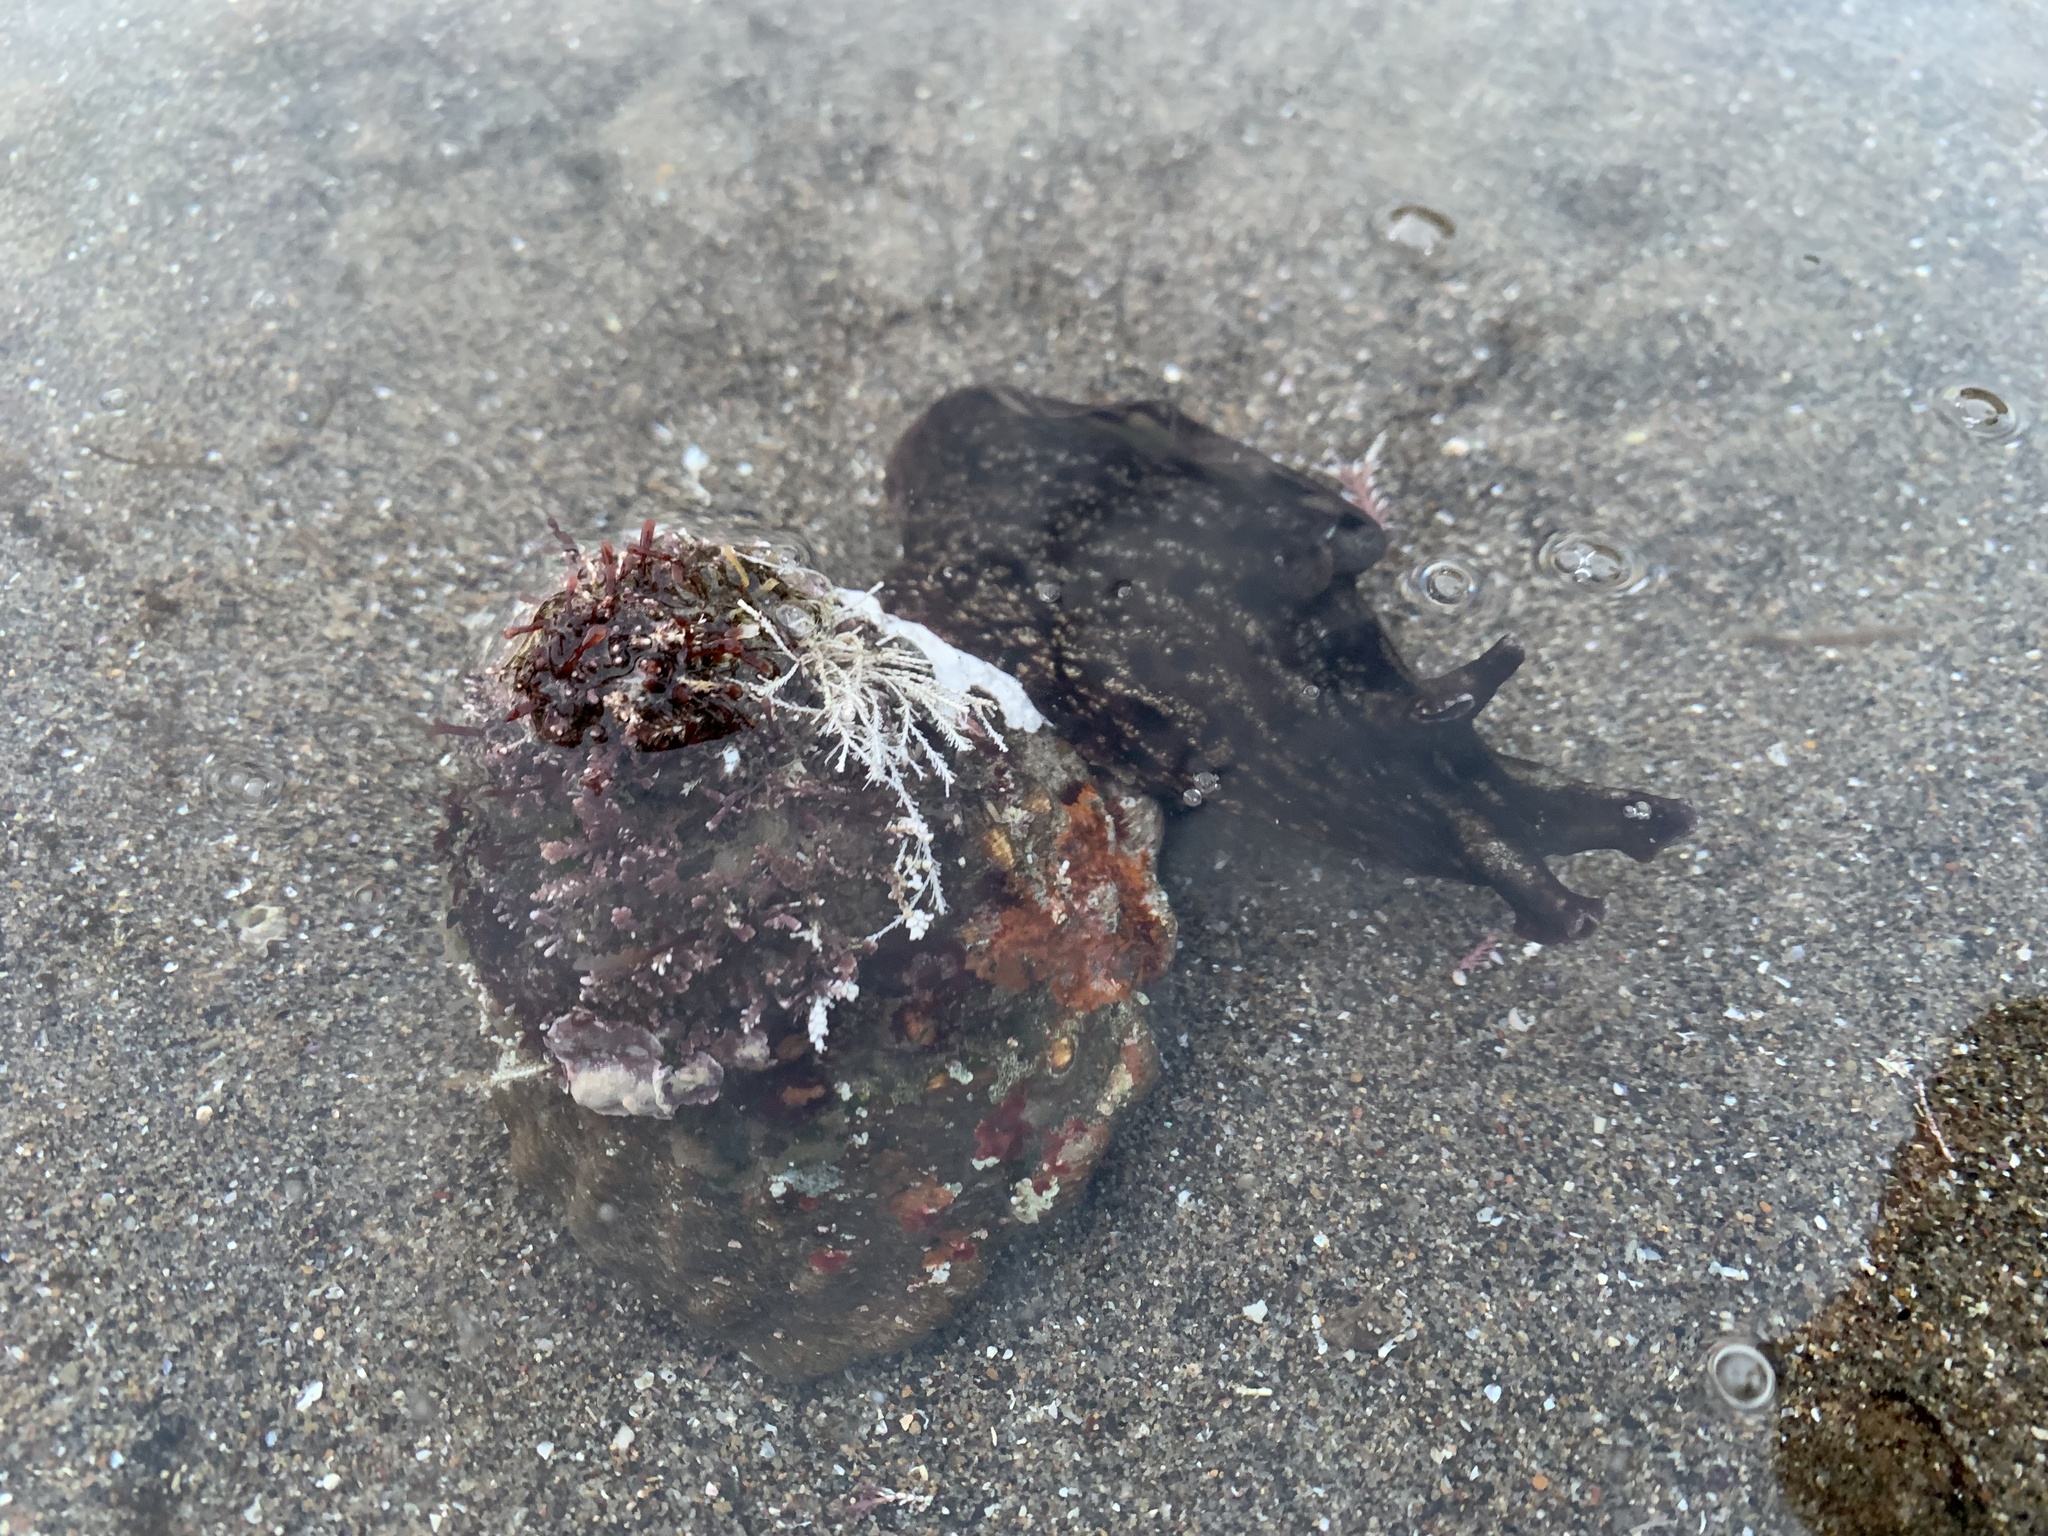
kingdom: Animalia
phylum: Mollusca
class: Gastropoda
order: Aplysiida
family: Aplysiidae
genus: Aplysia
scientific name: Aplysia californica
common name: California seahare
